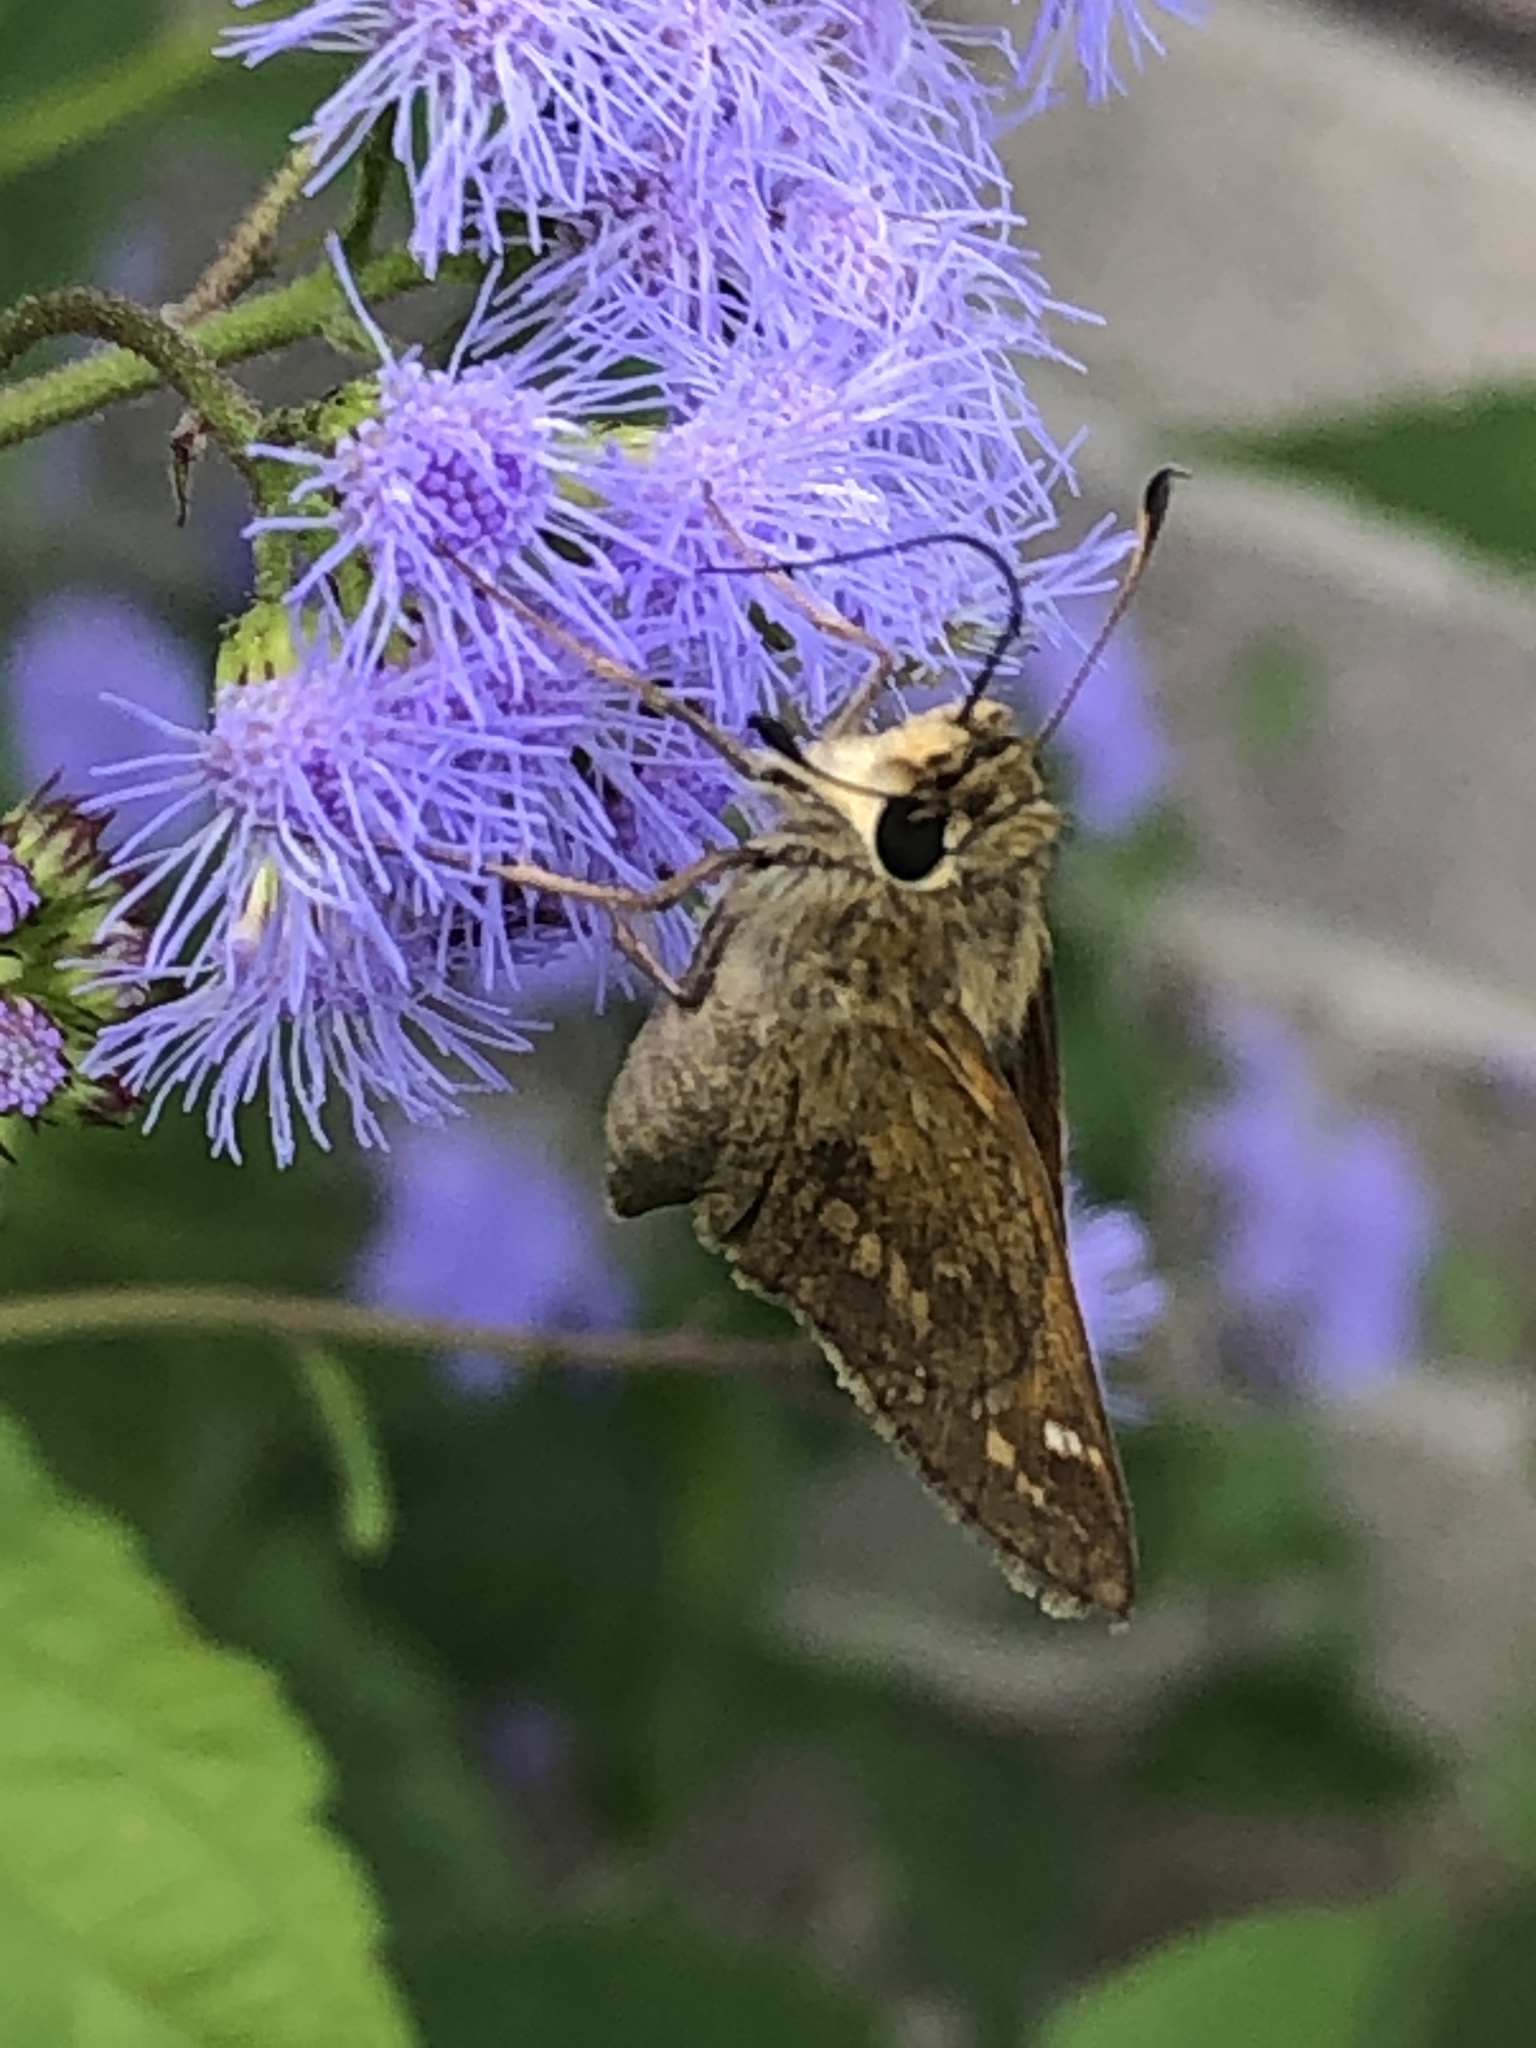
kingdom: Animalia
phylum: Arthropoda
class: Insecta
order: Lepidoptera
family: Hesperiidae
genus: Atalopedes
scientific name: Atalopedes
